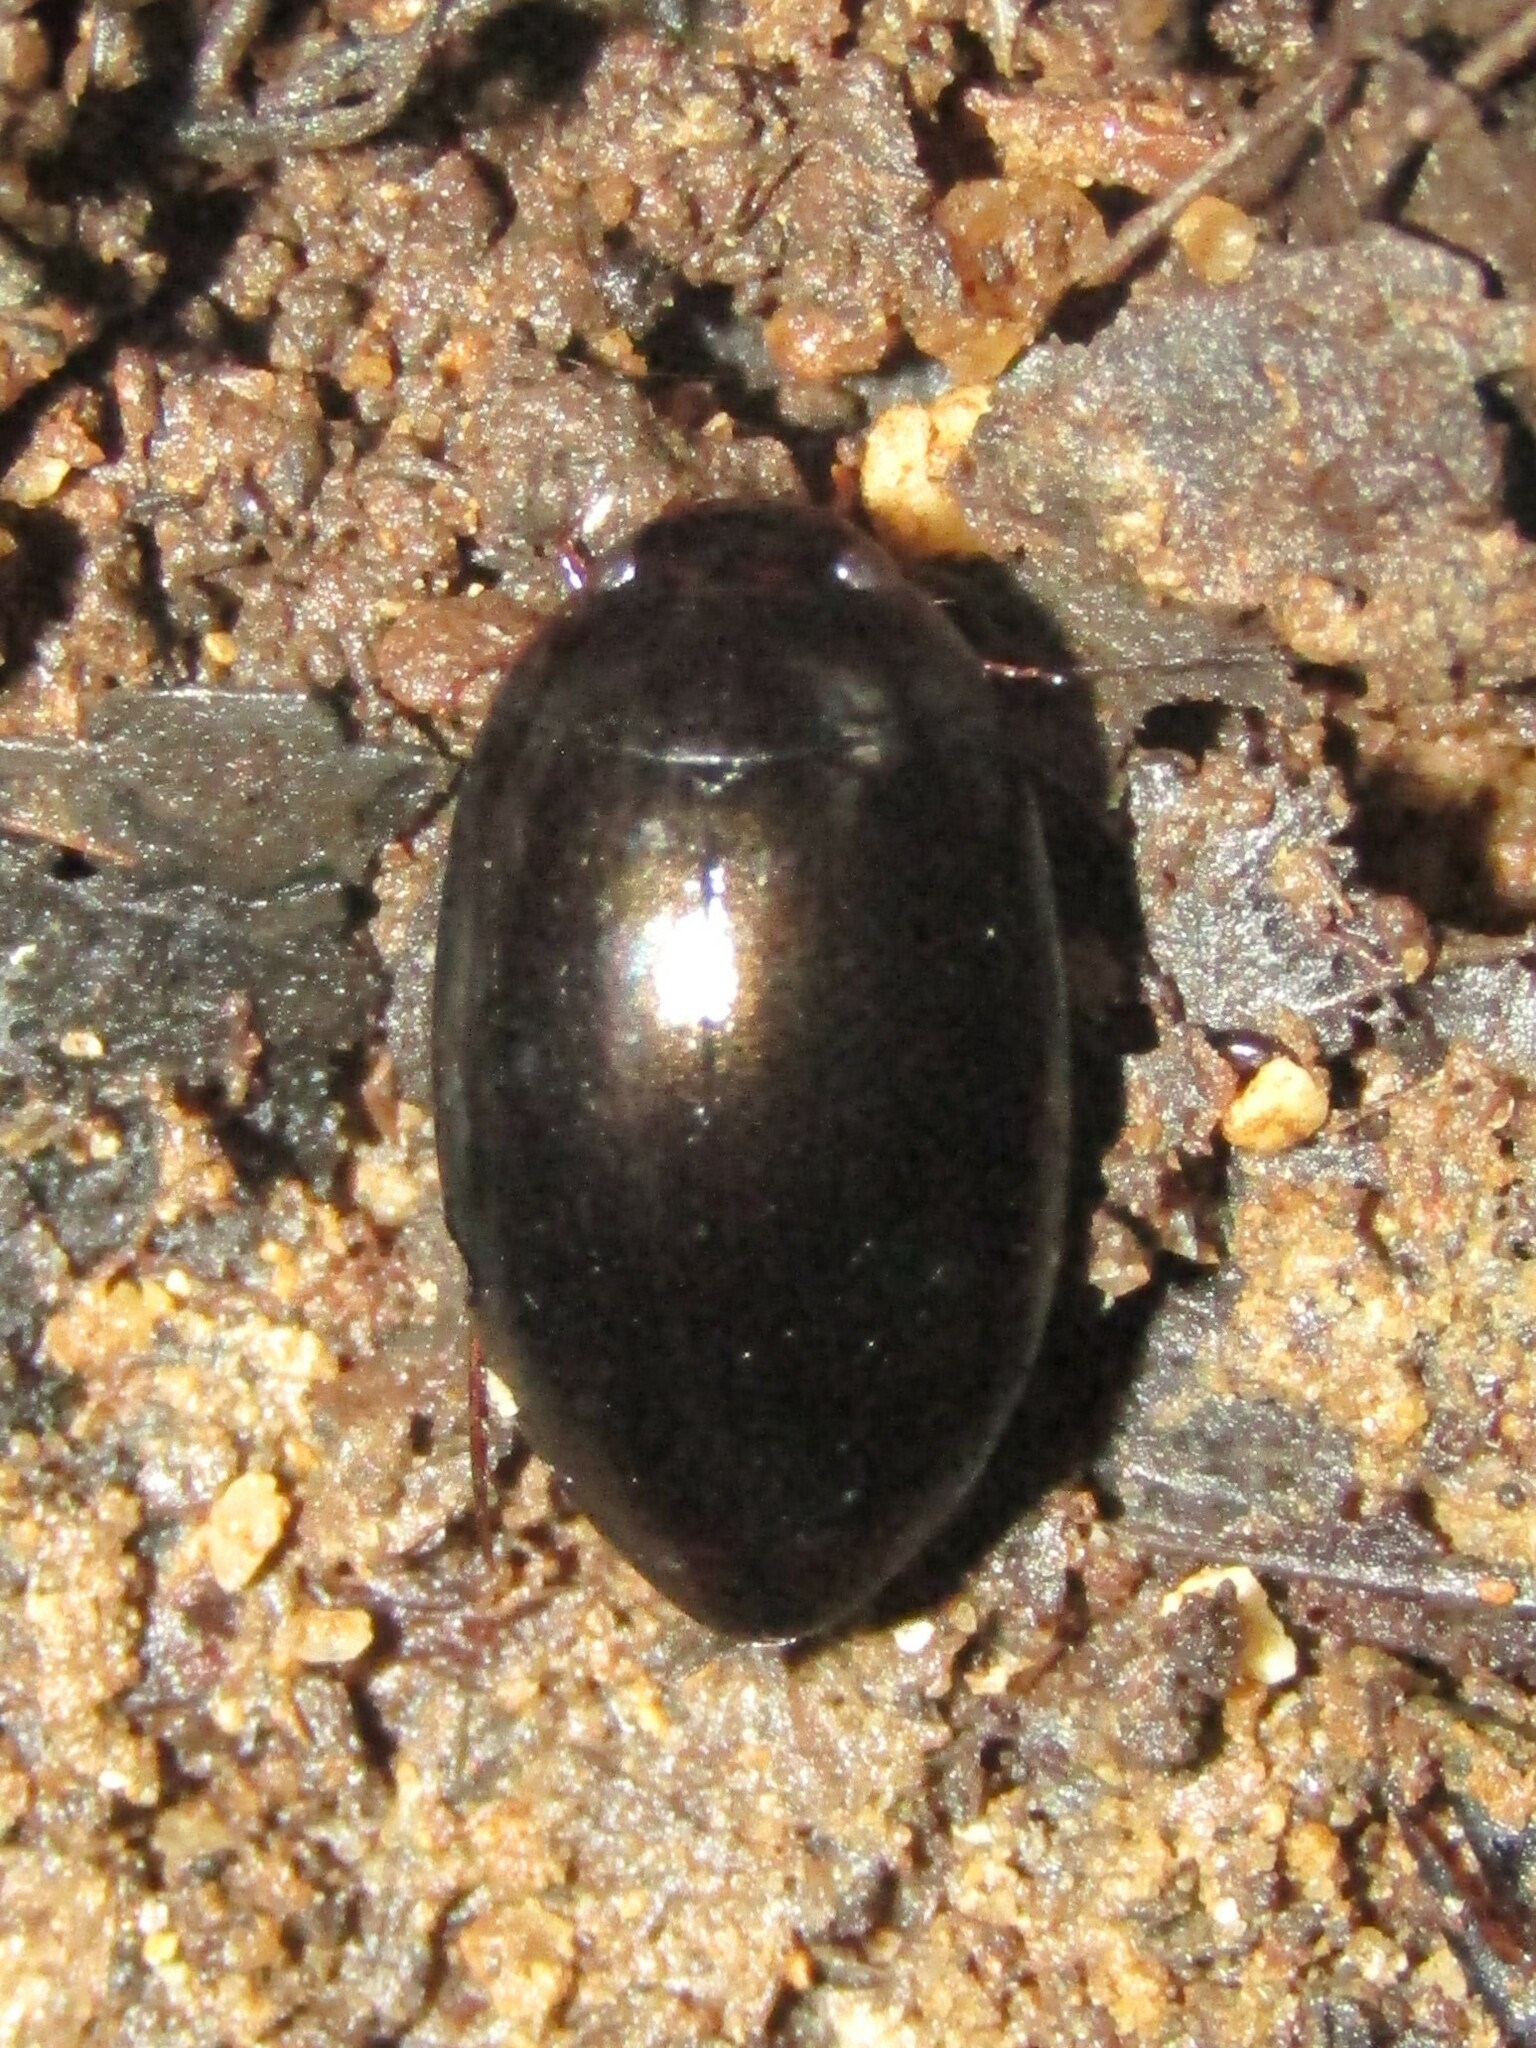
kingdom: Animalia
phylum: Arthropoda
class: Insecta
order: Coleoptera
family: Dytiscidae
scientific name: Dytiscidae
